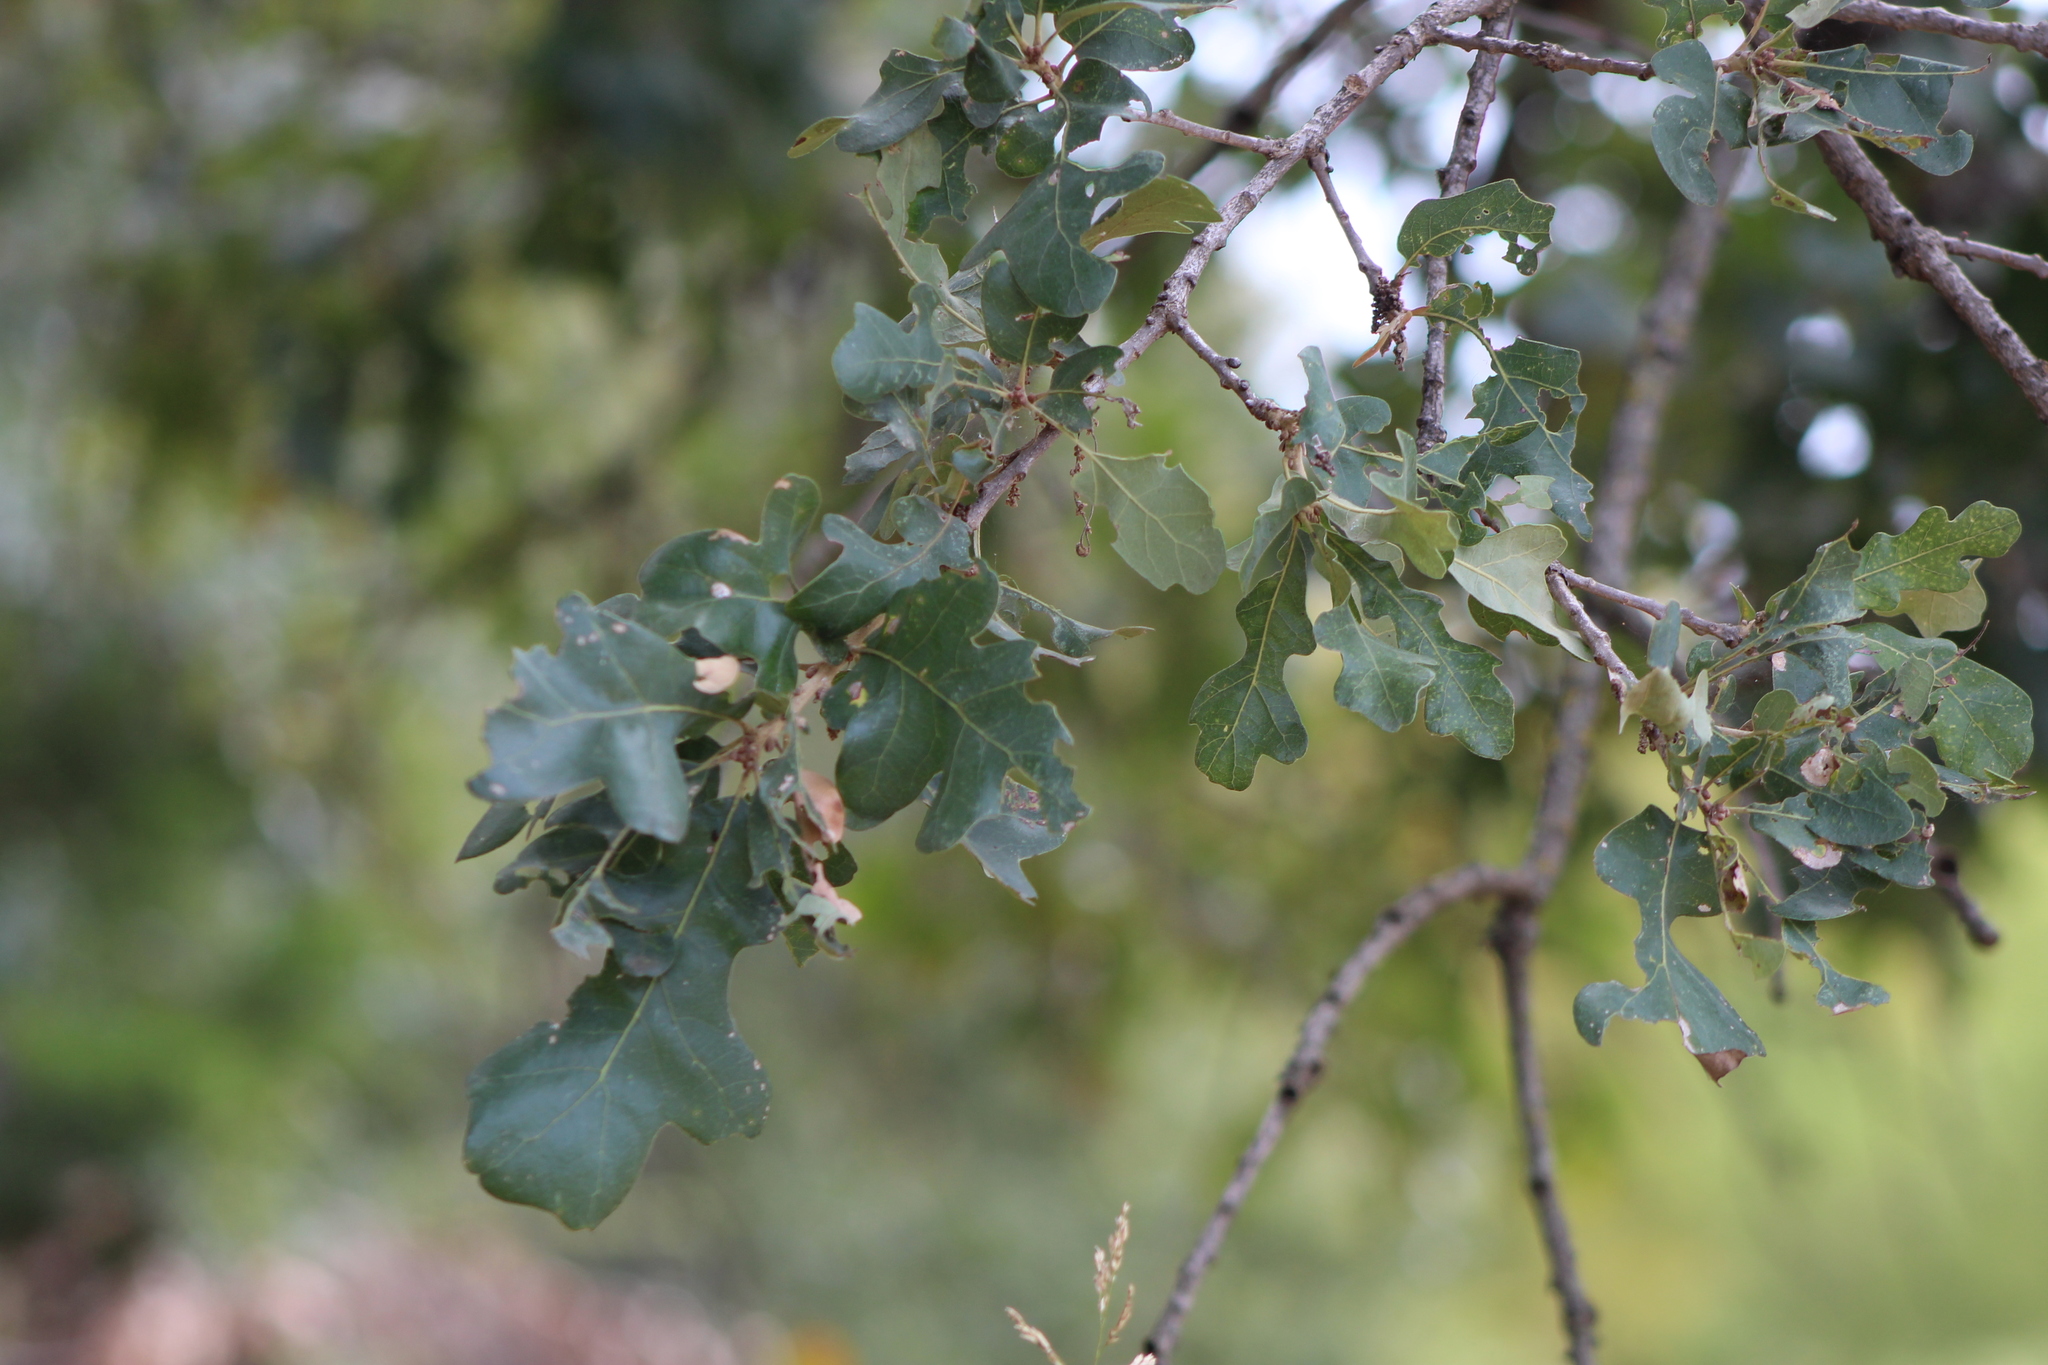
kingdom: Plantae
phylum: Tracheophyta
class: Magnoliopsida
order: Fagales
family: Fagaceae
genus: Quercus
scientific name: Quercus stellata
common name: Post oak
